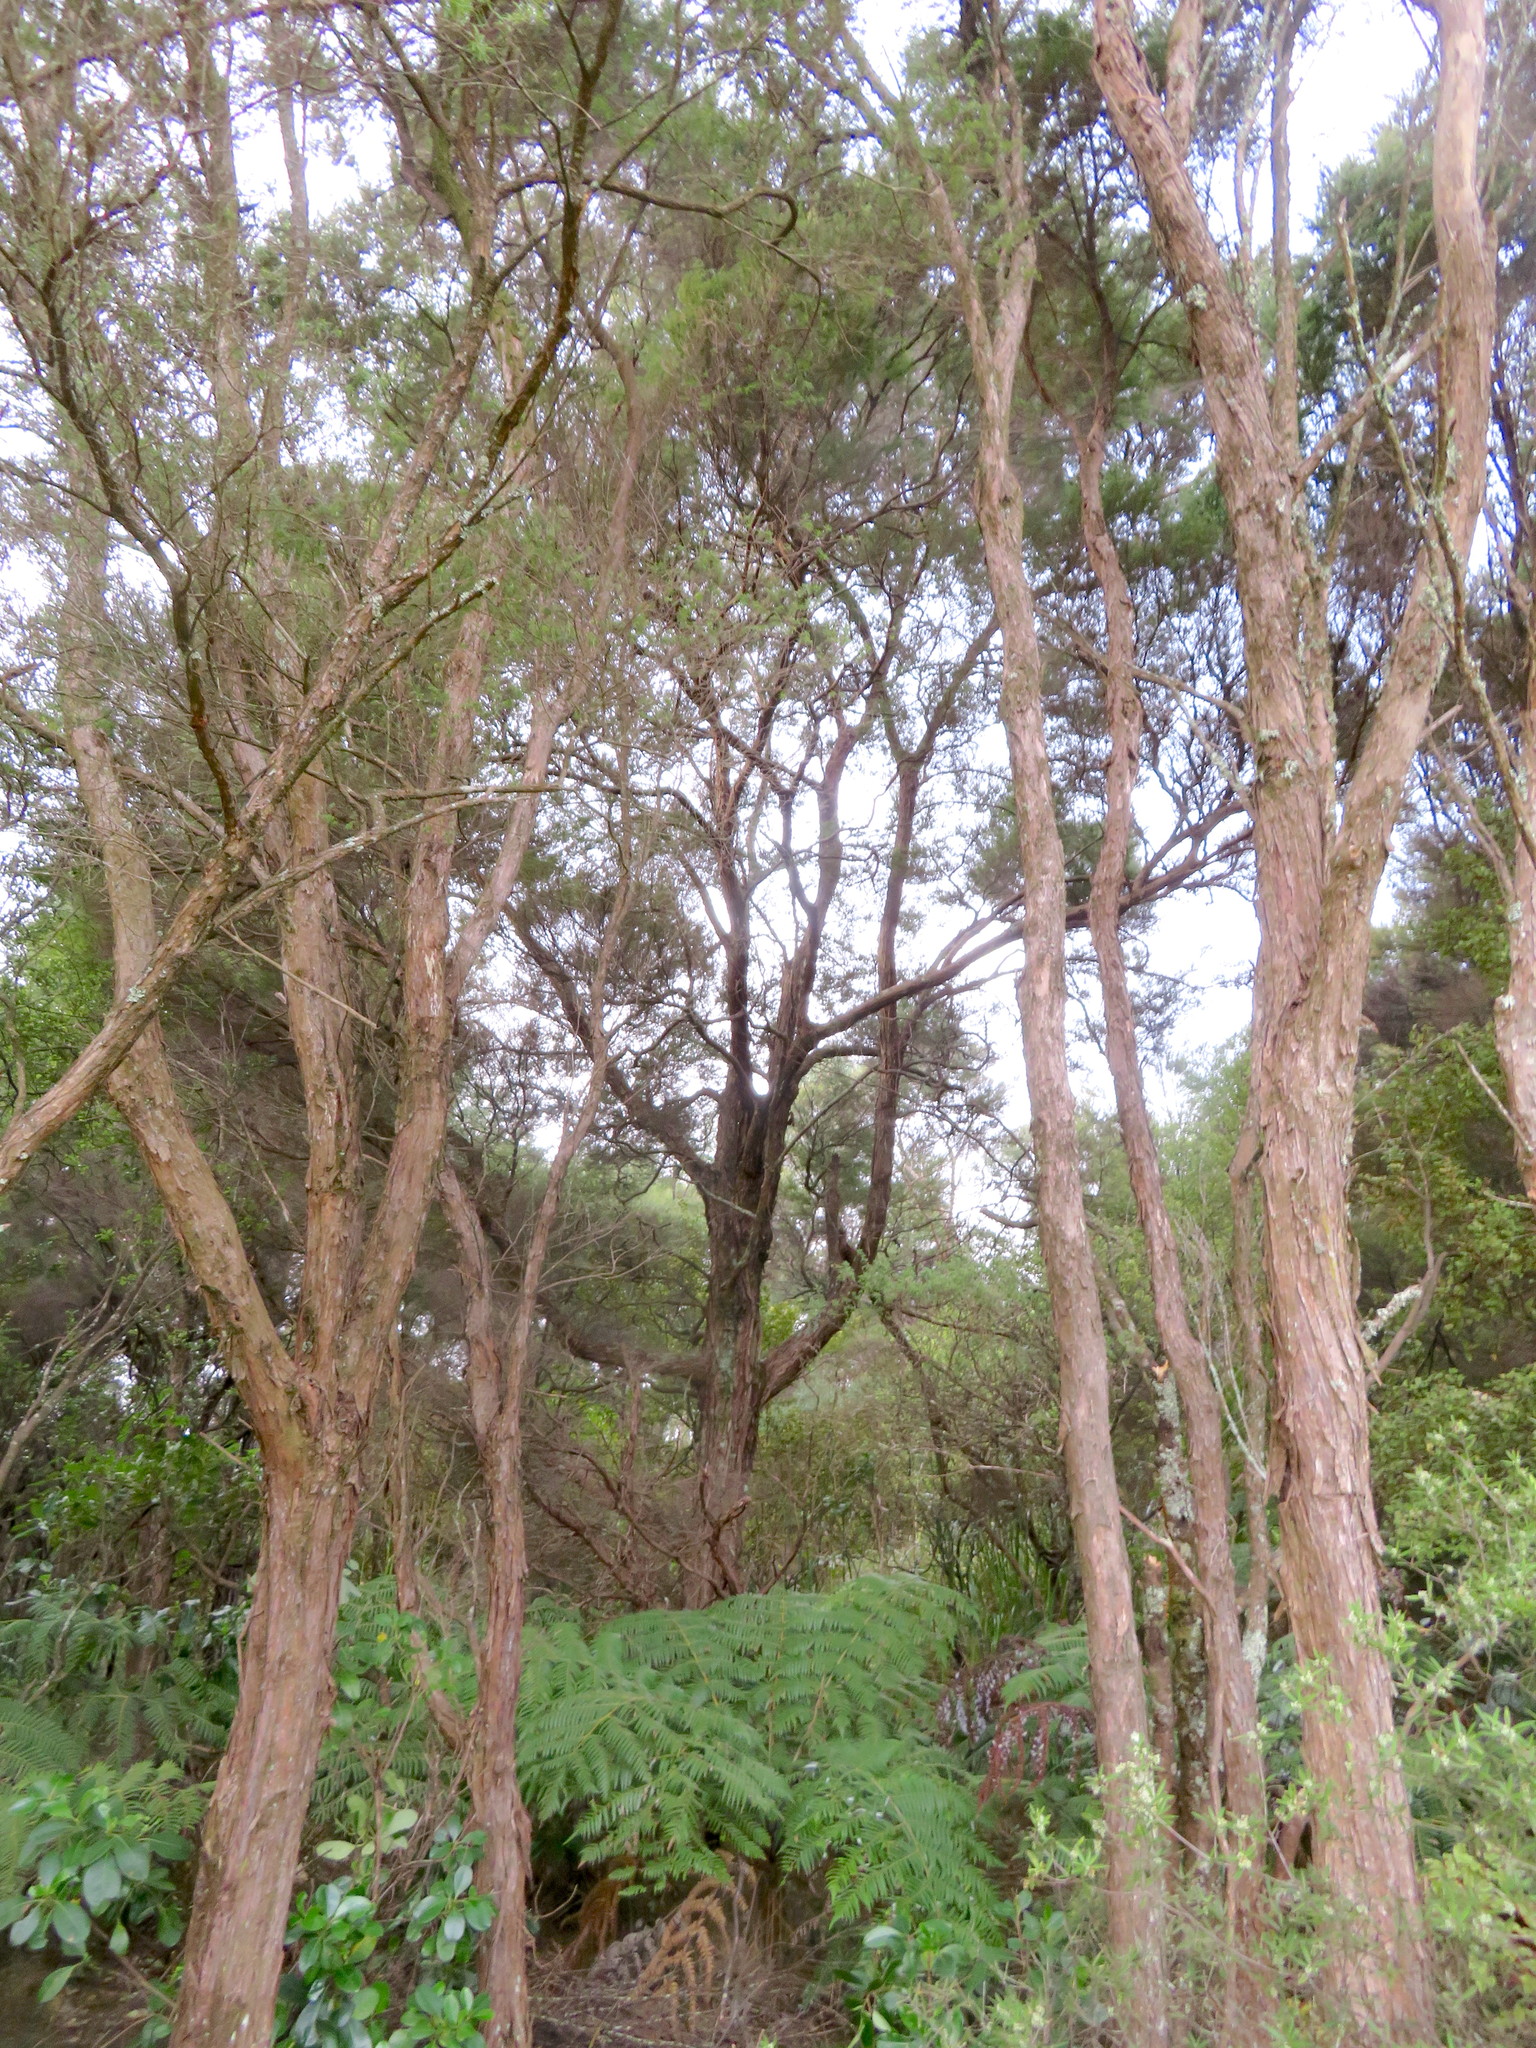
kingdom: Plantae
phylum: Tracheophyta
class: Polypodiopsida
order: Cyatheales
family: Cyatheaceae
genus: Alsophila
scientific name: Alsophila dealbata
